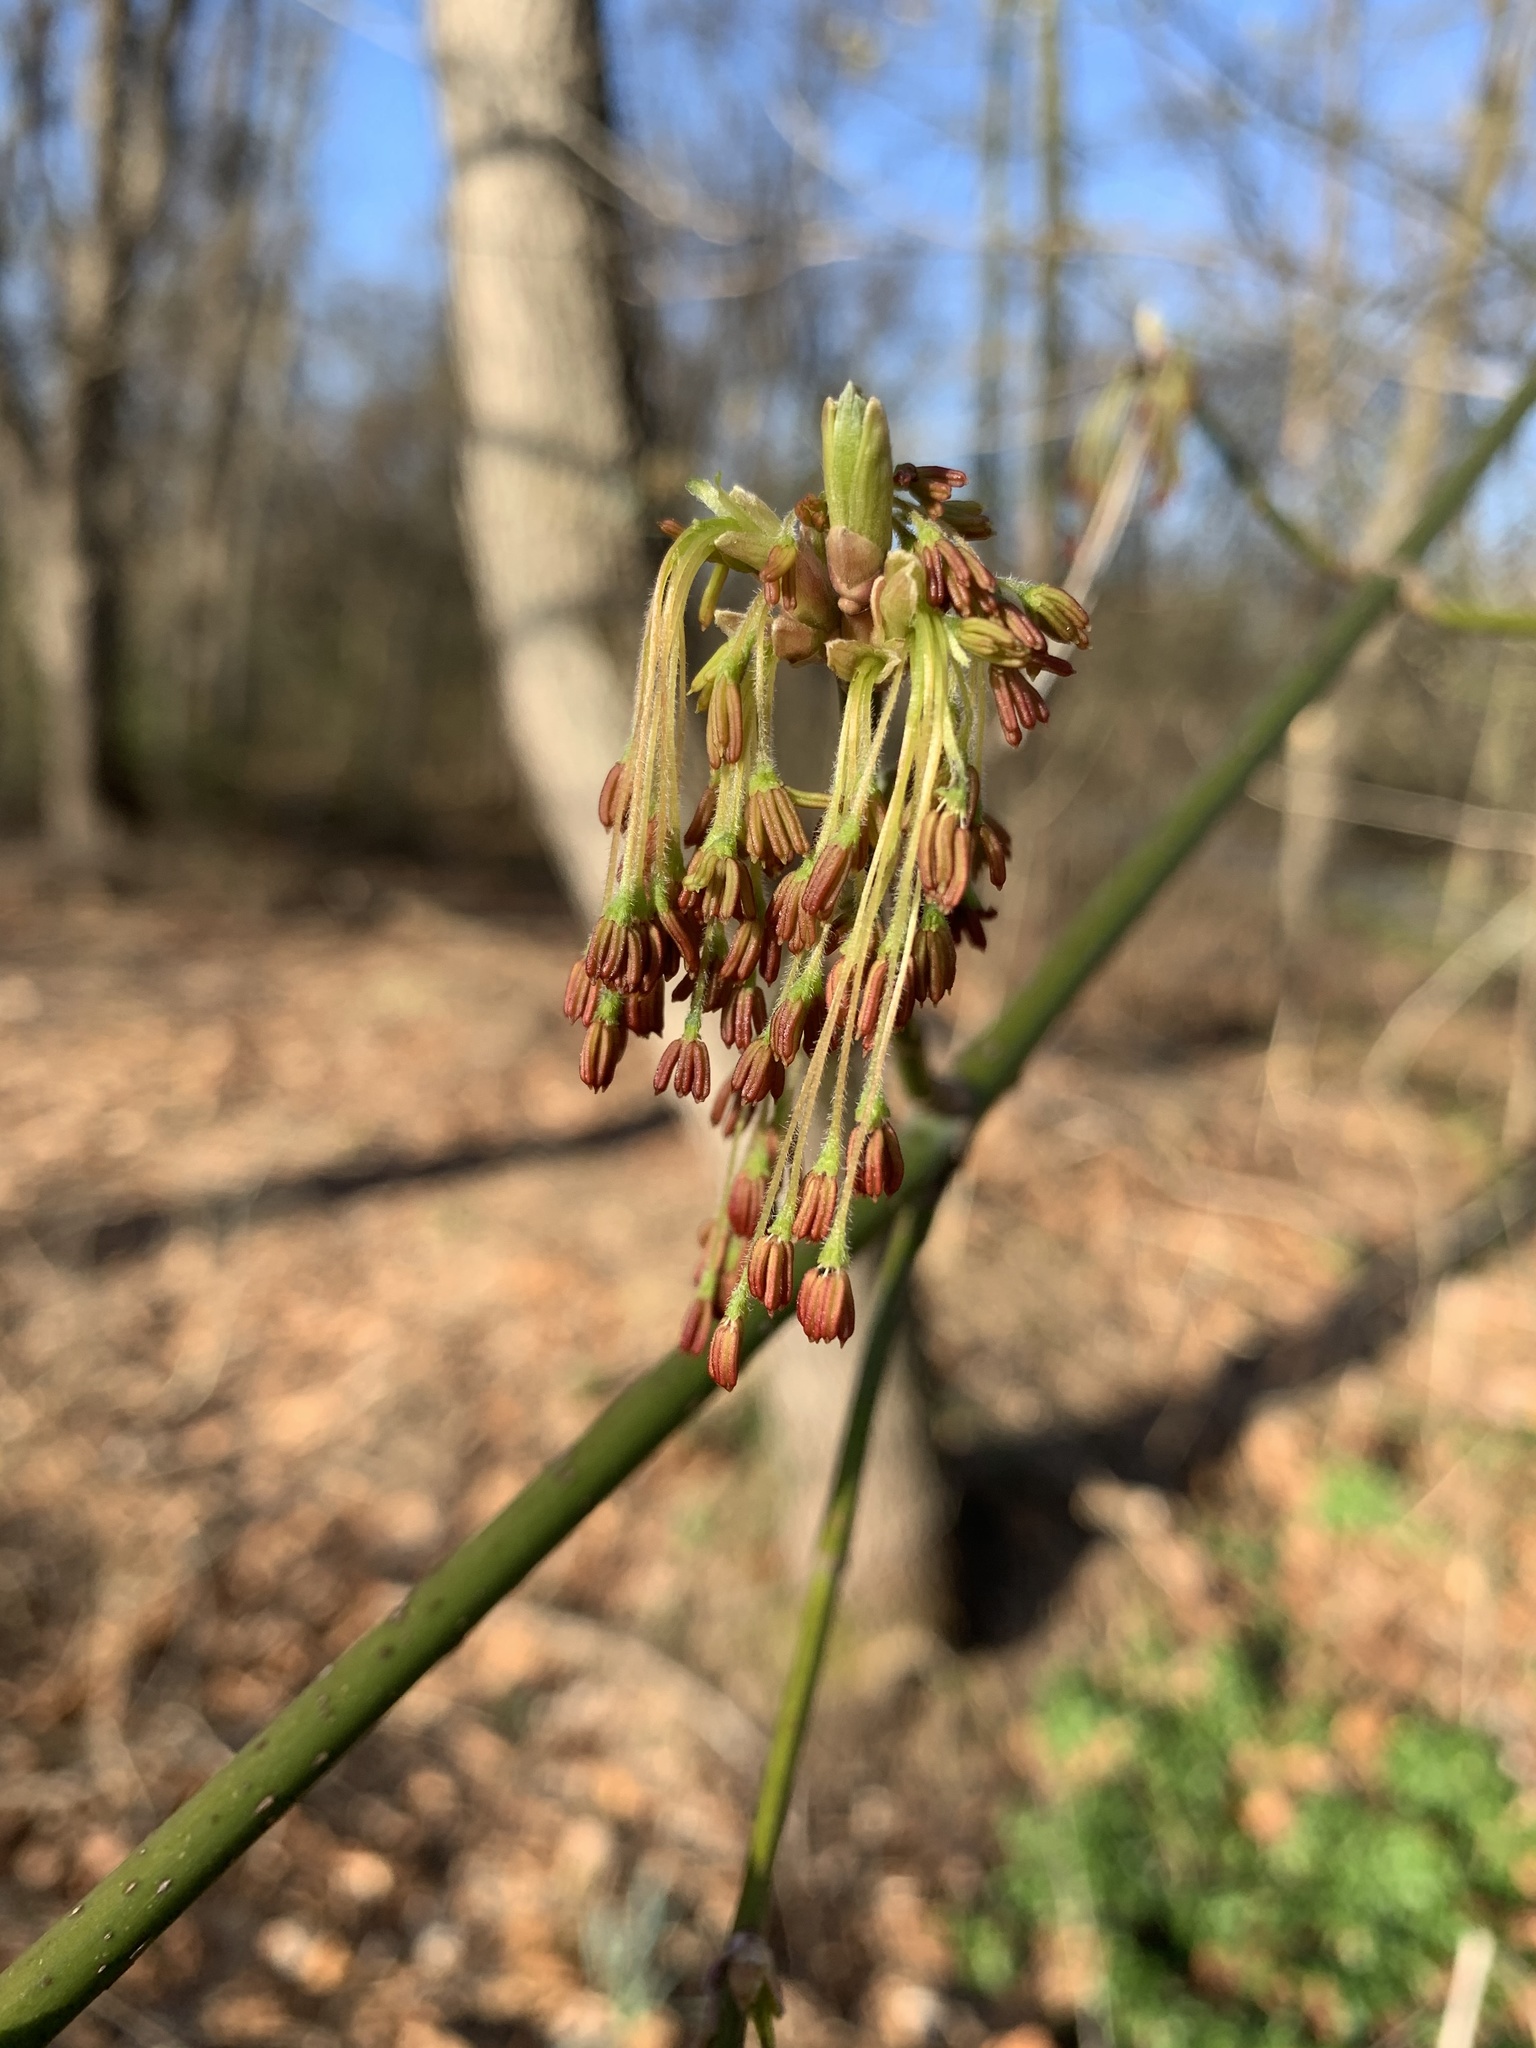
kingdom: Plantae
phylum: Tracheophyta
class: Magnoliopsida
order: Sapindales
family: Sapindaceae
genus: Acer
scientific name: Acer negundo
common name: Ashleaf maple
